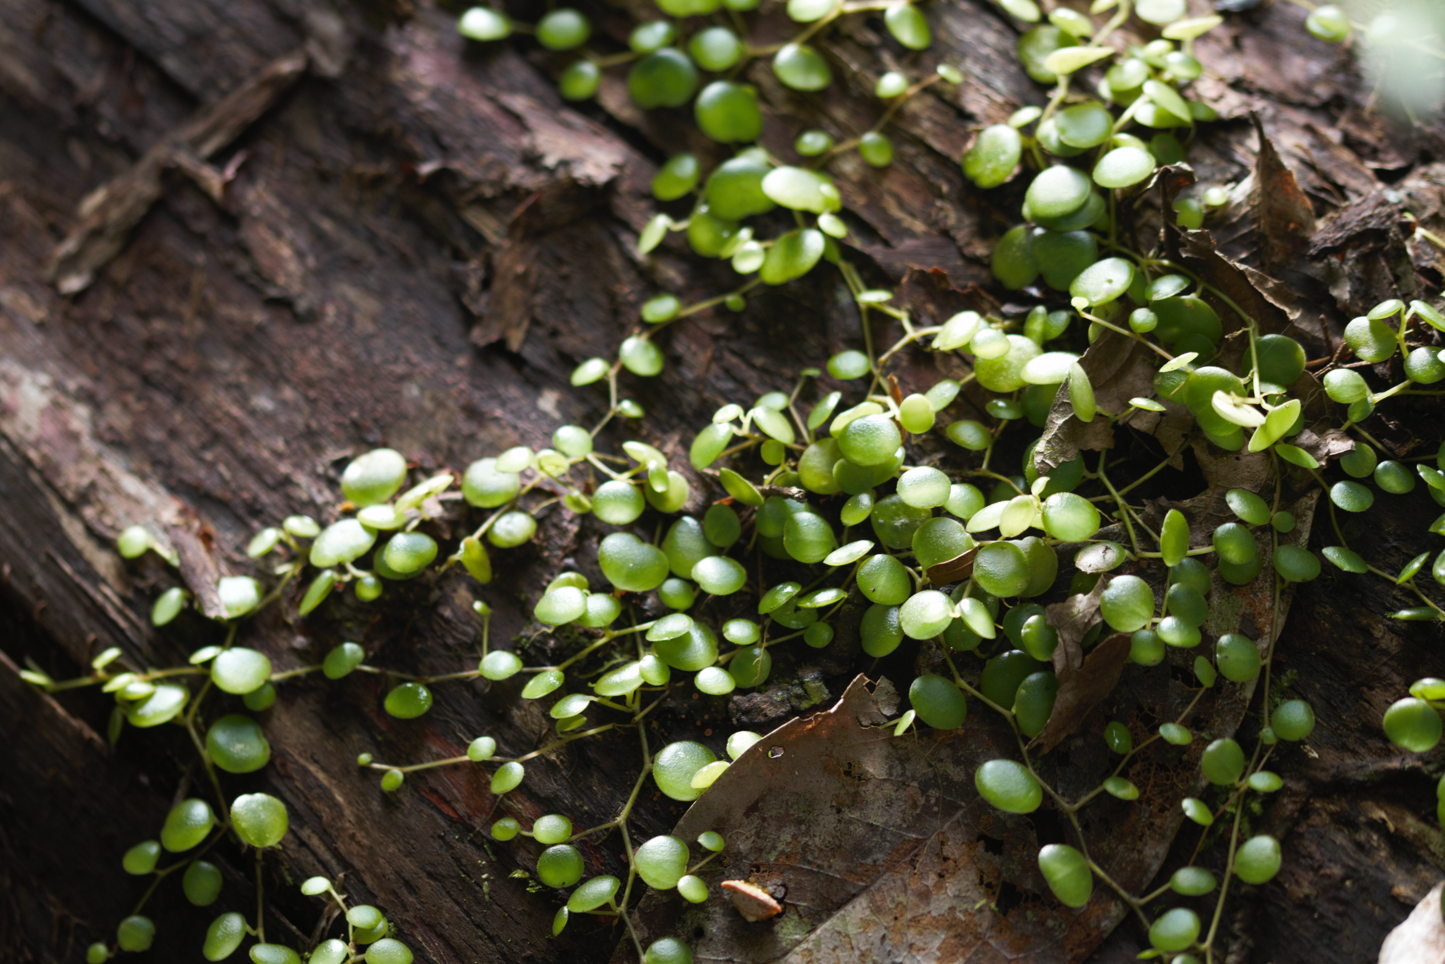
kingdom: Plantae
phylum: Tracheophyta
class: Magnoliopsida
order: Piperales
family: Piperaceae
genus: Peperomia
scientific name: Peperomia rotundifolia
